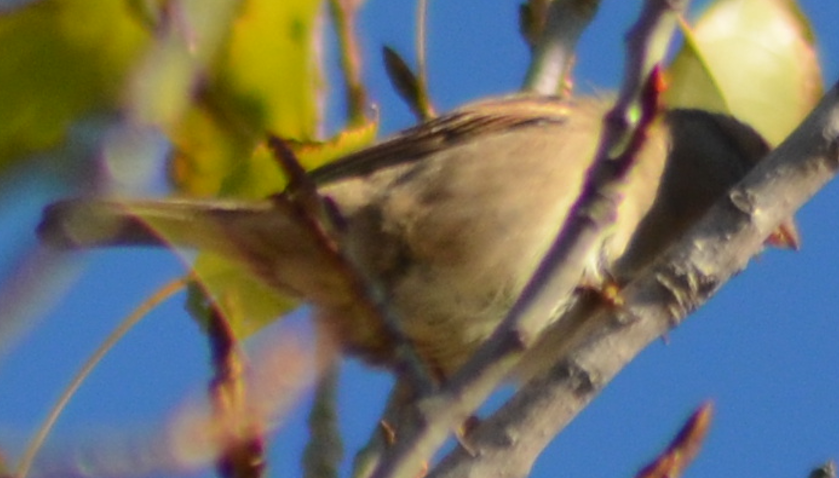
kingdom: Animalia
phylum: Chordata
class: Aves
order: Passeriformes
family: Passeridae
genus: Passer
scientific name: Passer domesticus
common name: House sparrow
